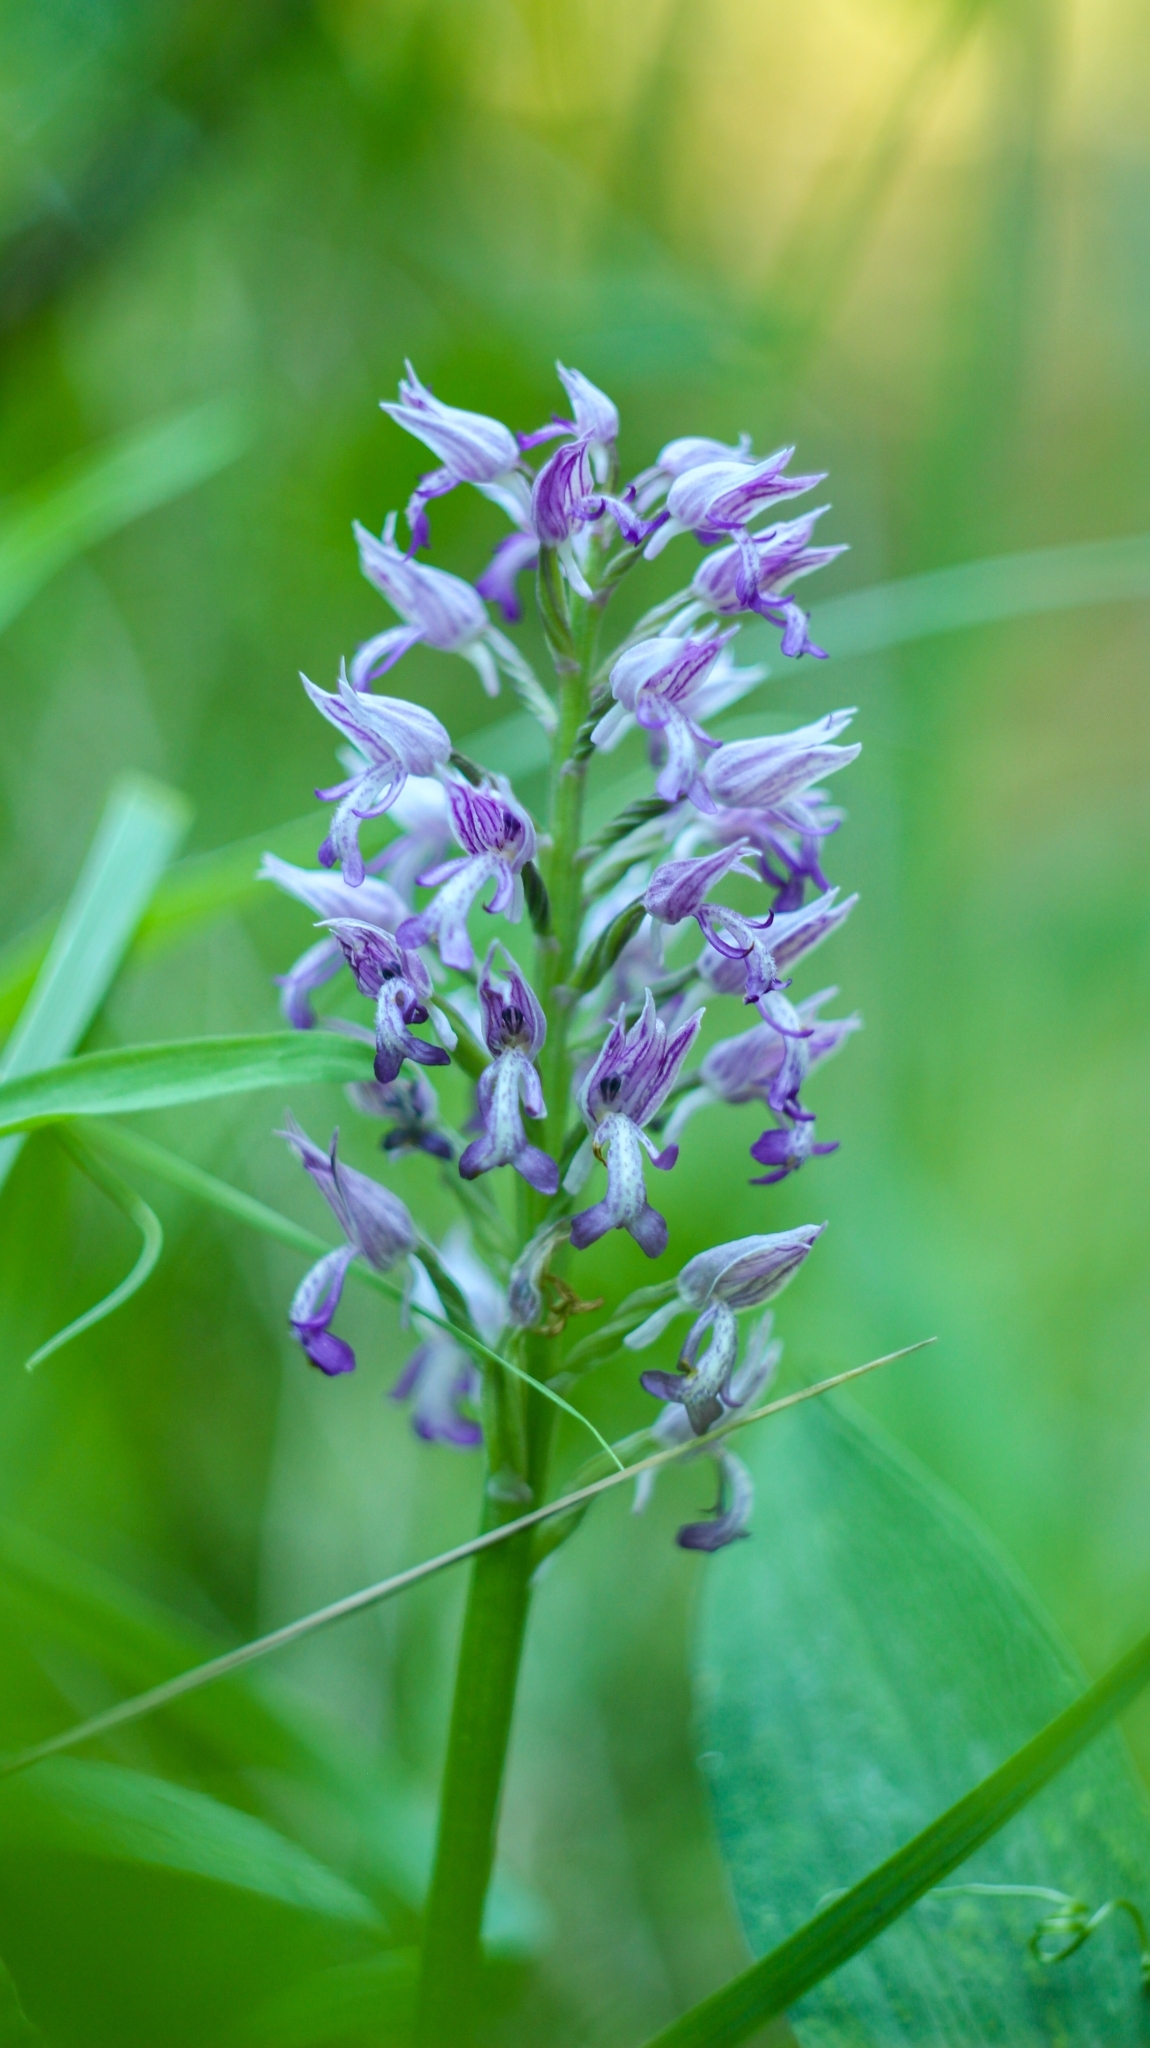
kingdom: Plantae
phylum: Tracheophyta
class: Liliopsida
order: Asparagales
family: Orchidaceae
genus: Orchis
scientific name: Orchis militaris
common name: Military orchid
